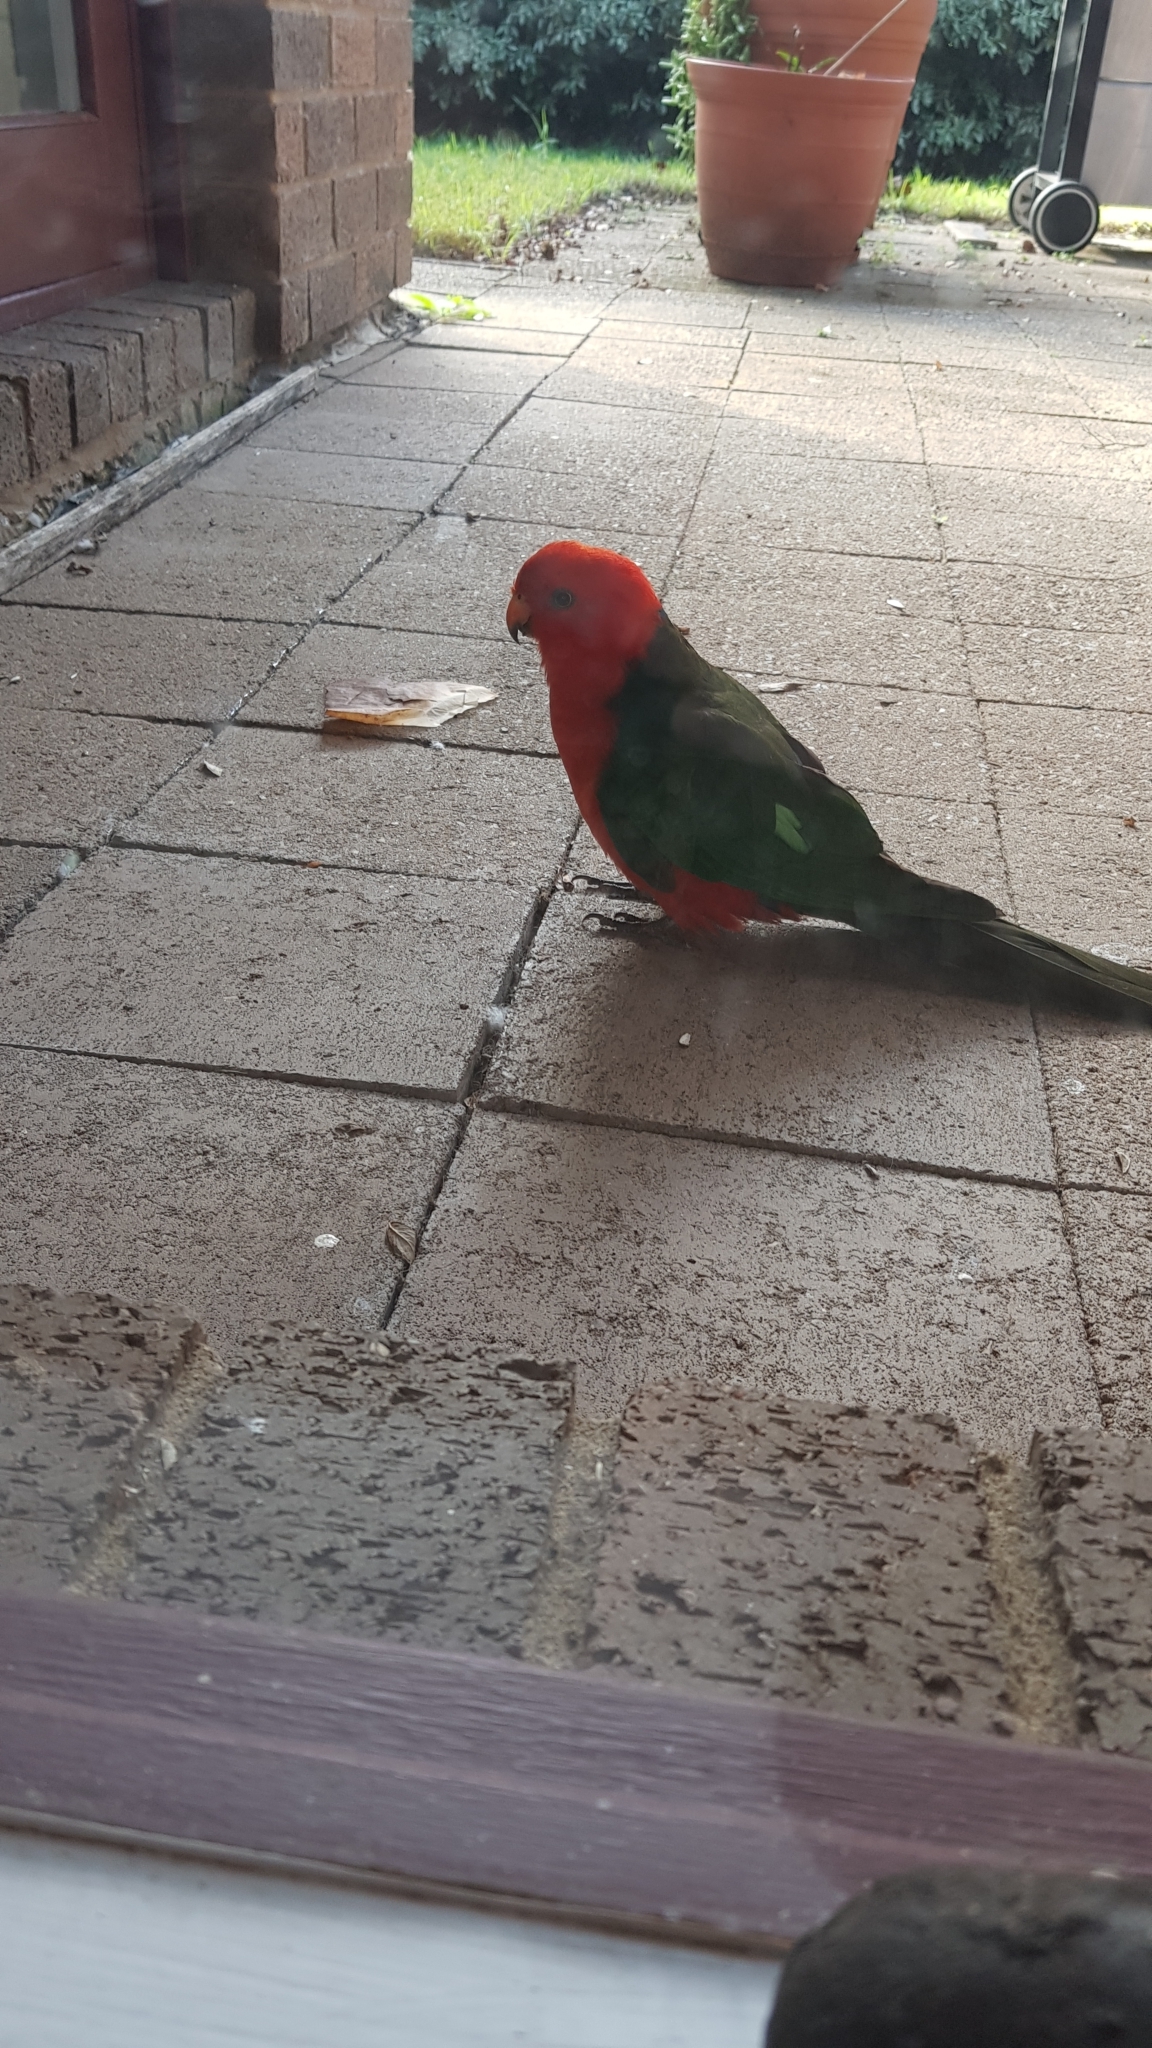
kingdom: Animalia
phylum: Chordata
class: Aves
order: Psittaciformes
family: Psittacidae
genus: Alisterus
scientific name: Alisterus scapularis
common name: Australian king parrot
